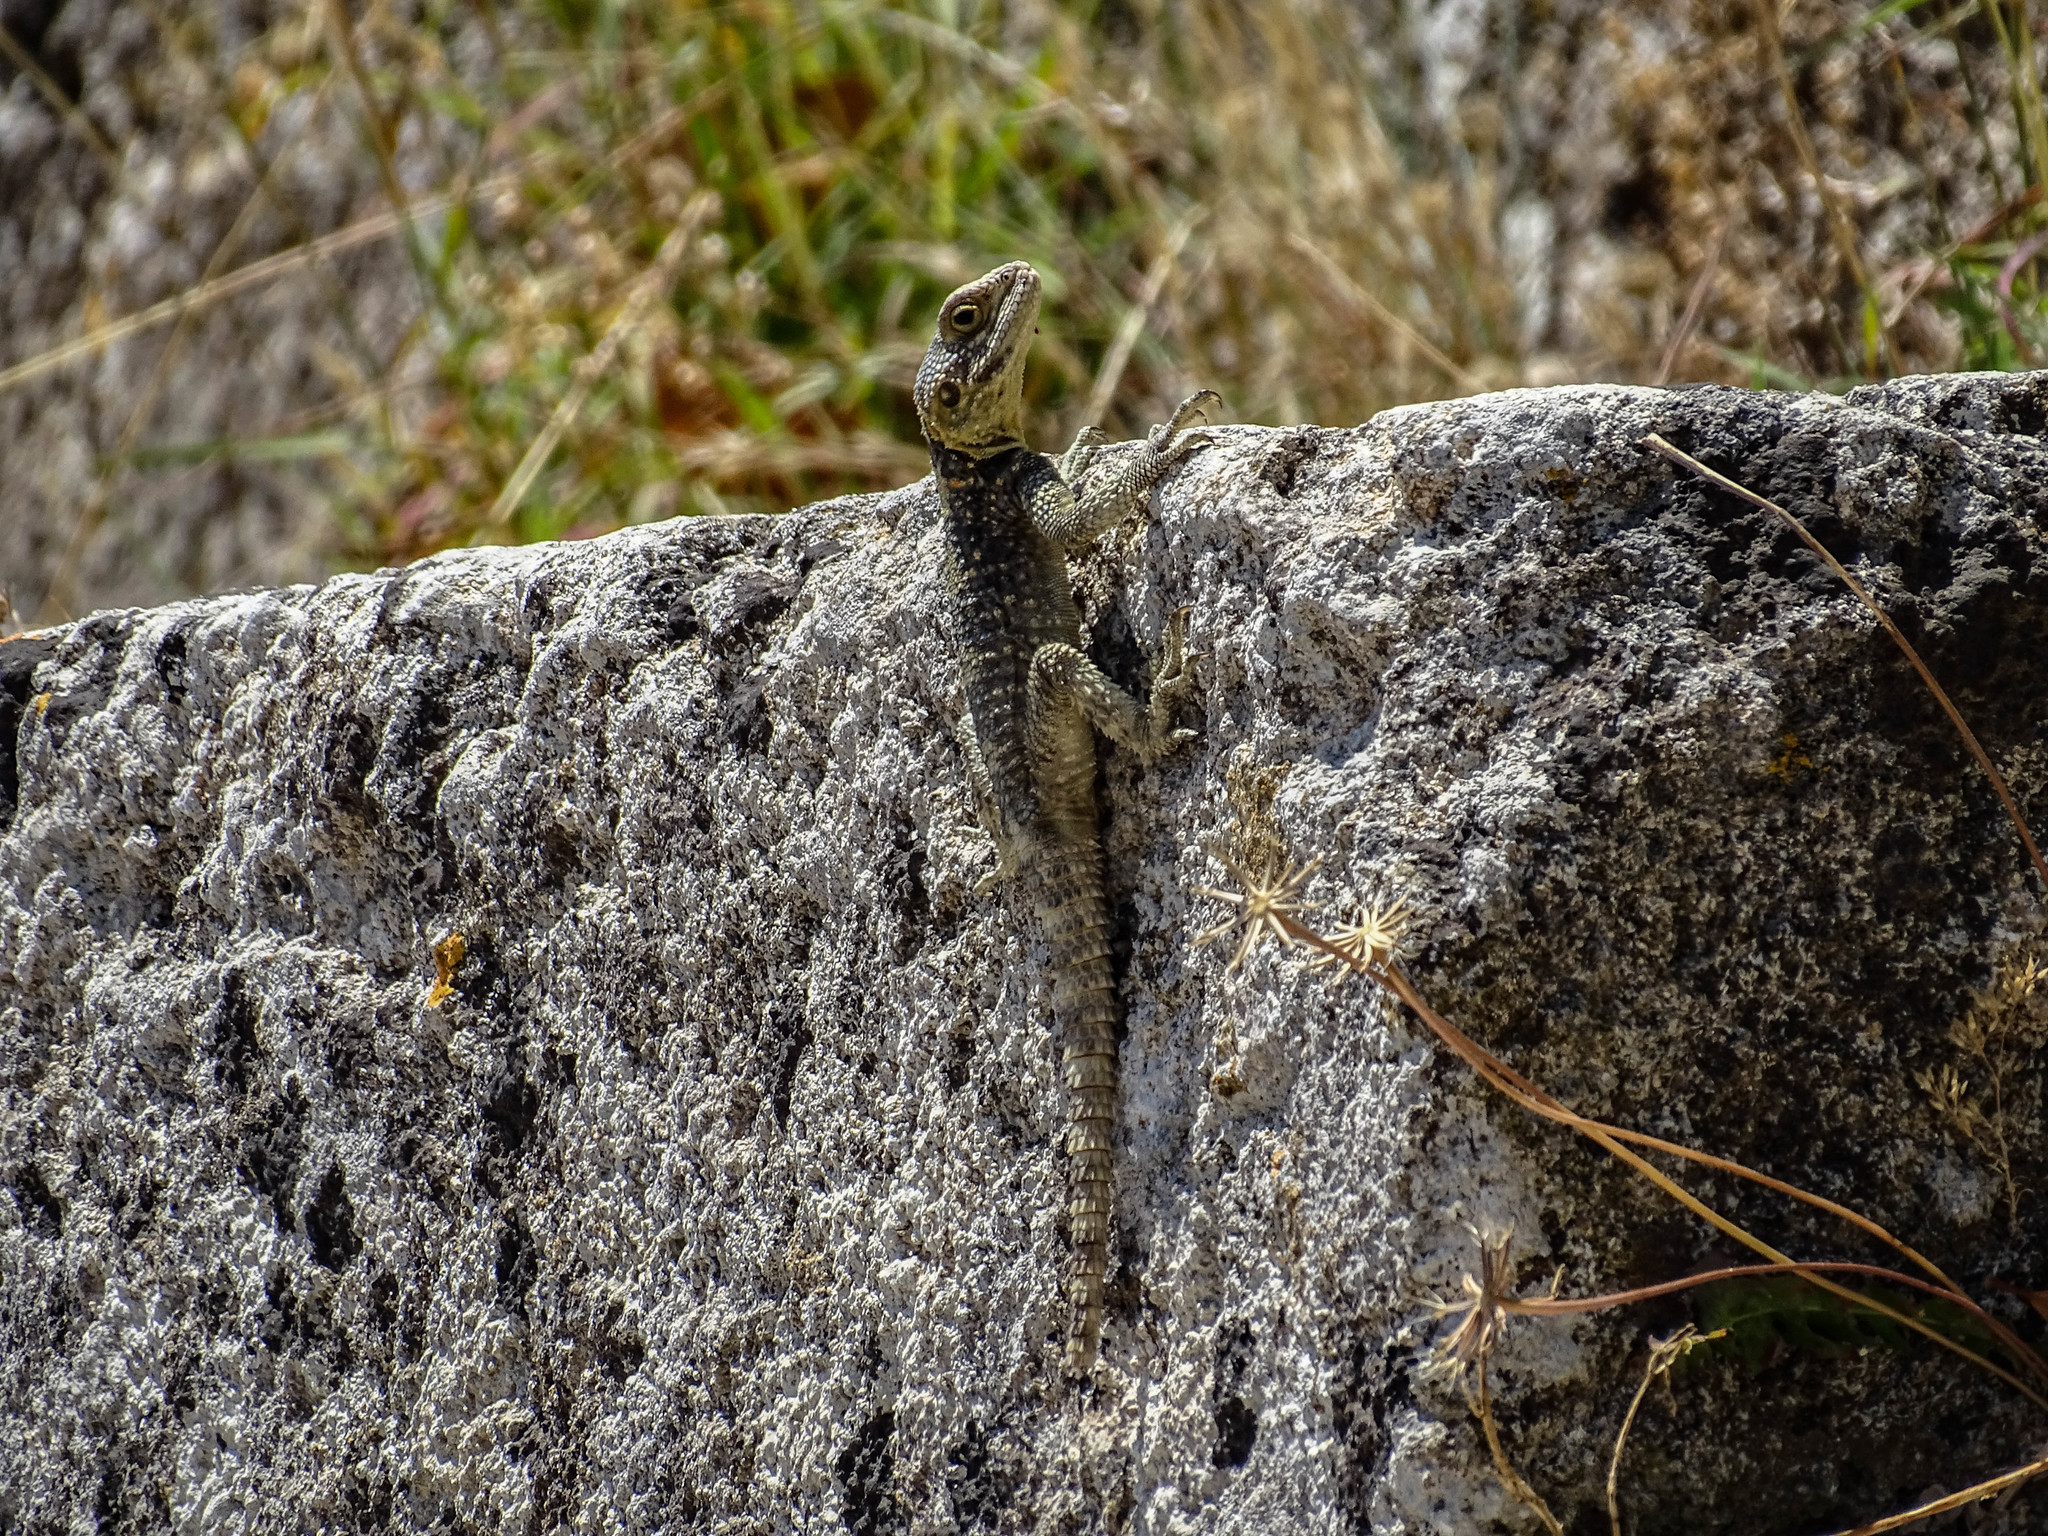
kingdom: Animalia
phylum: Chordata
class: Squamata
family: Agamidae
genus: Stellagama
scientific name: Stellagama stellio
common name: Starred agama
